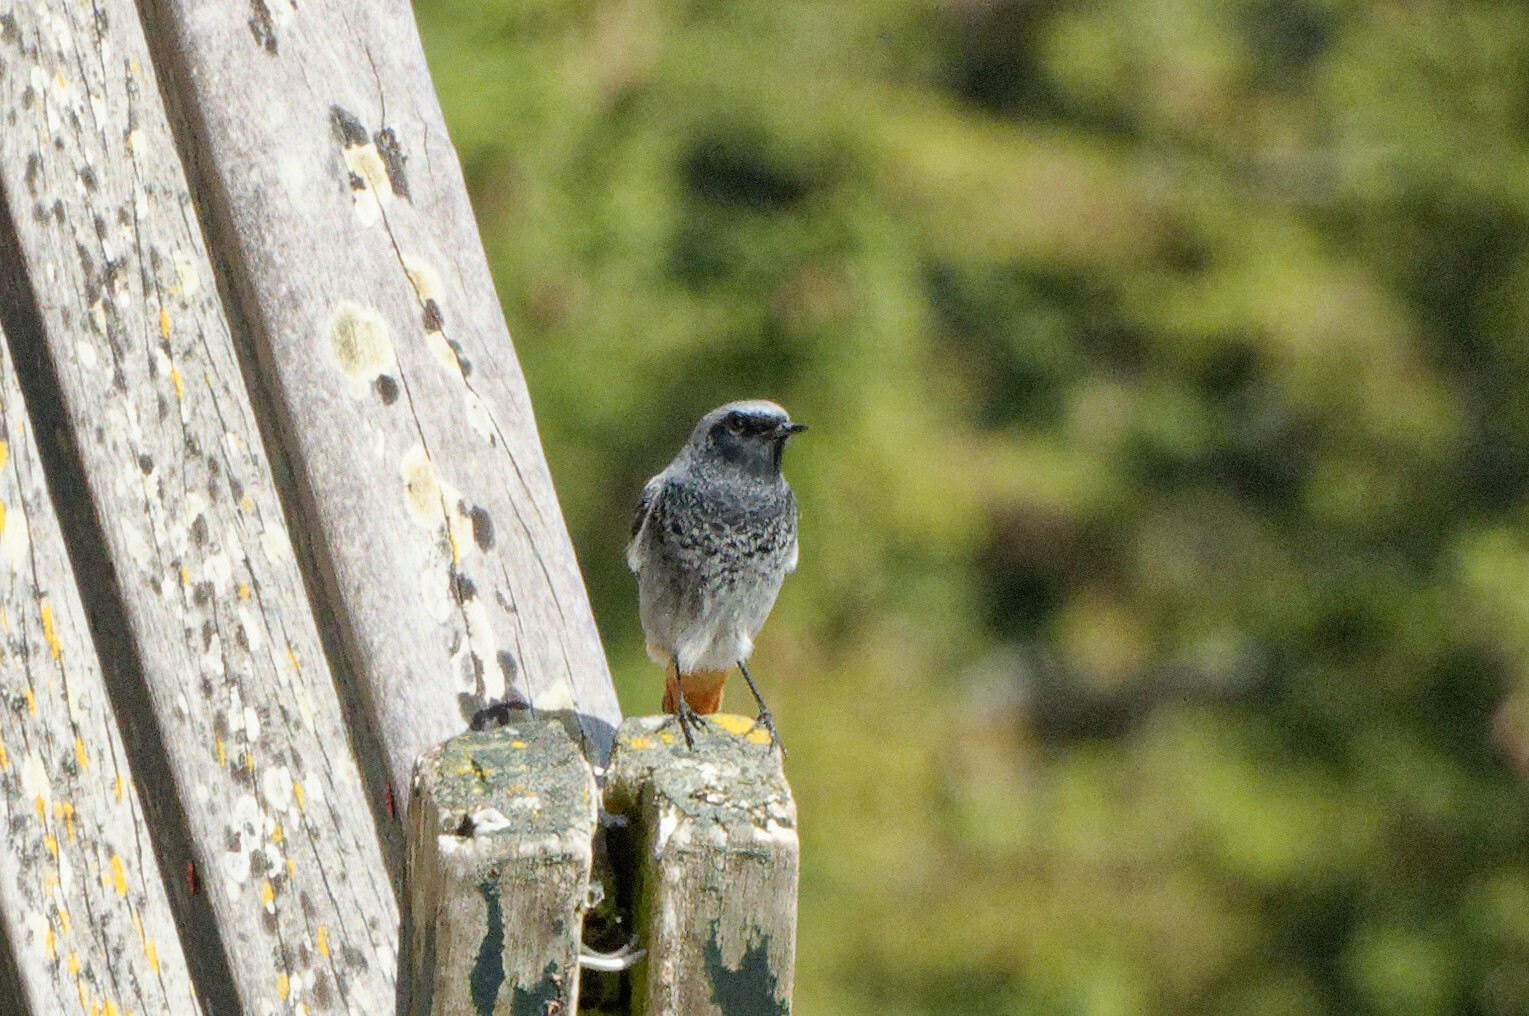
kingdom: Animalia
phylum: Chordata
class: Aves
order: Passeriformes
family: Muscicapidae
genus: Phoenicurus
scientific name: Phoenicurus ochruros
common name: Black redstart
